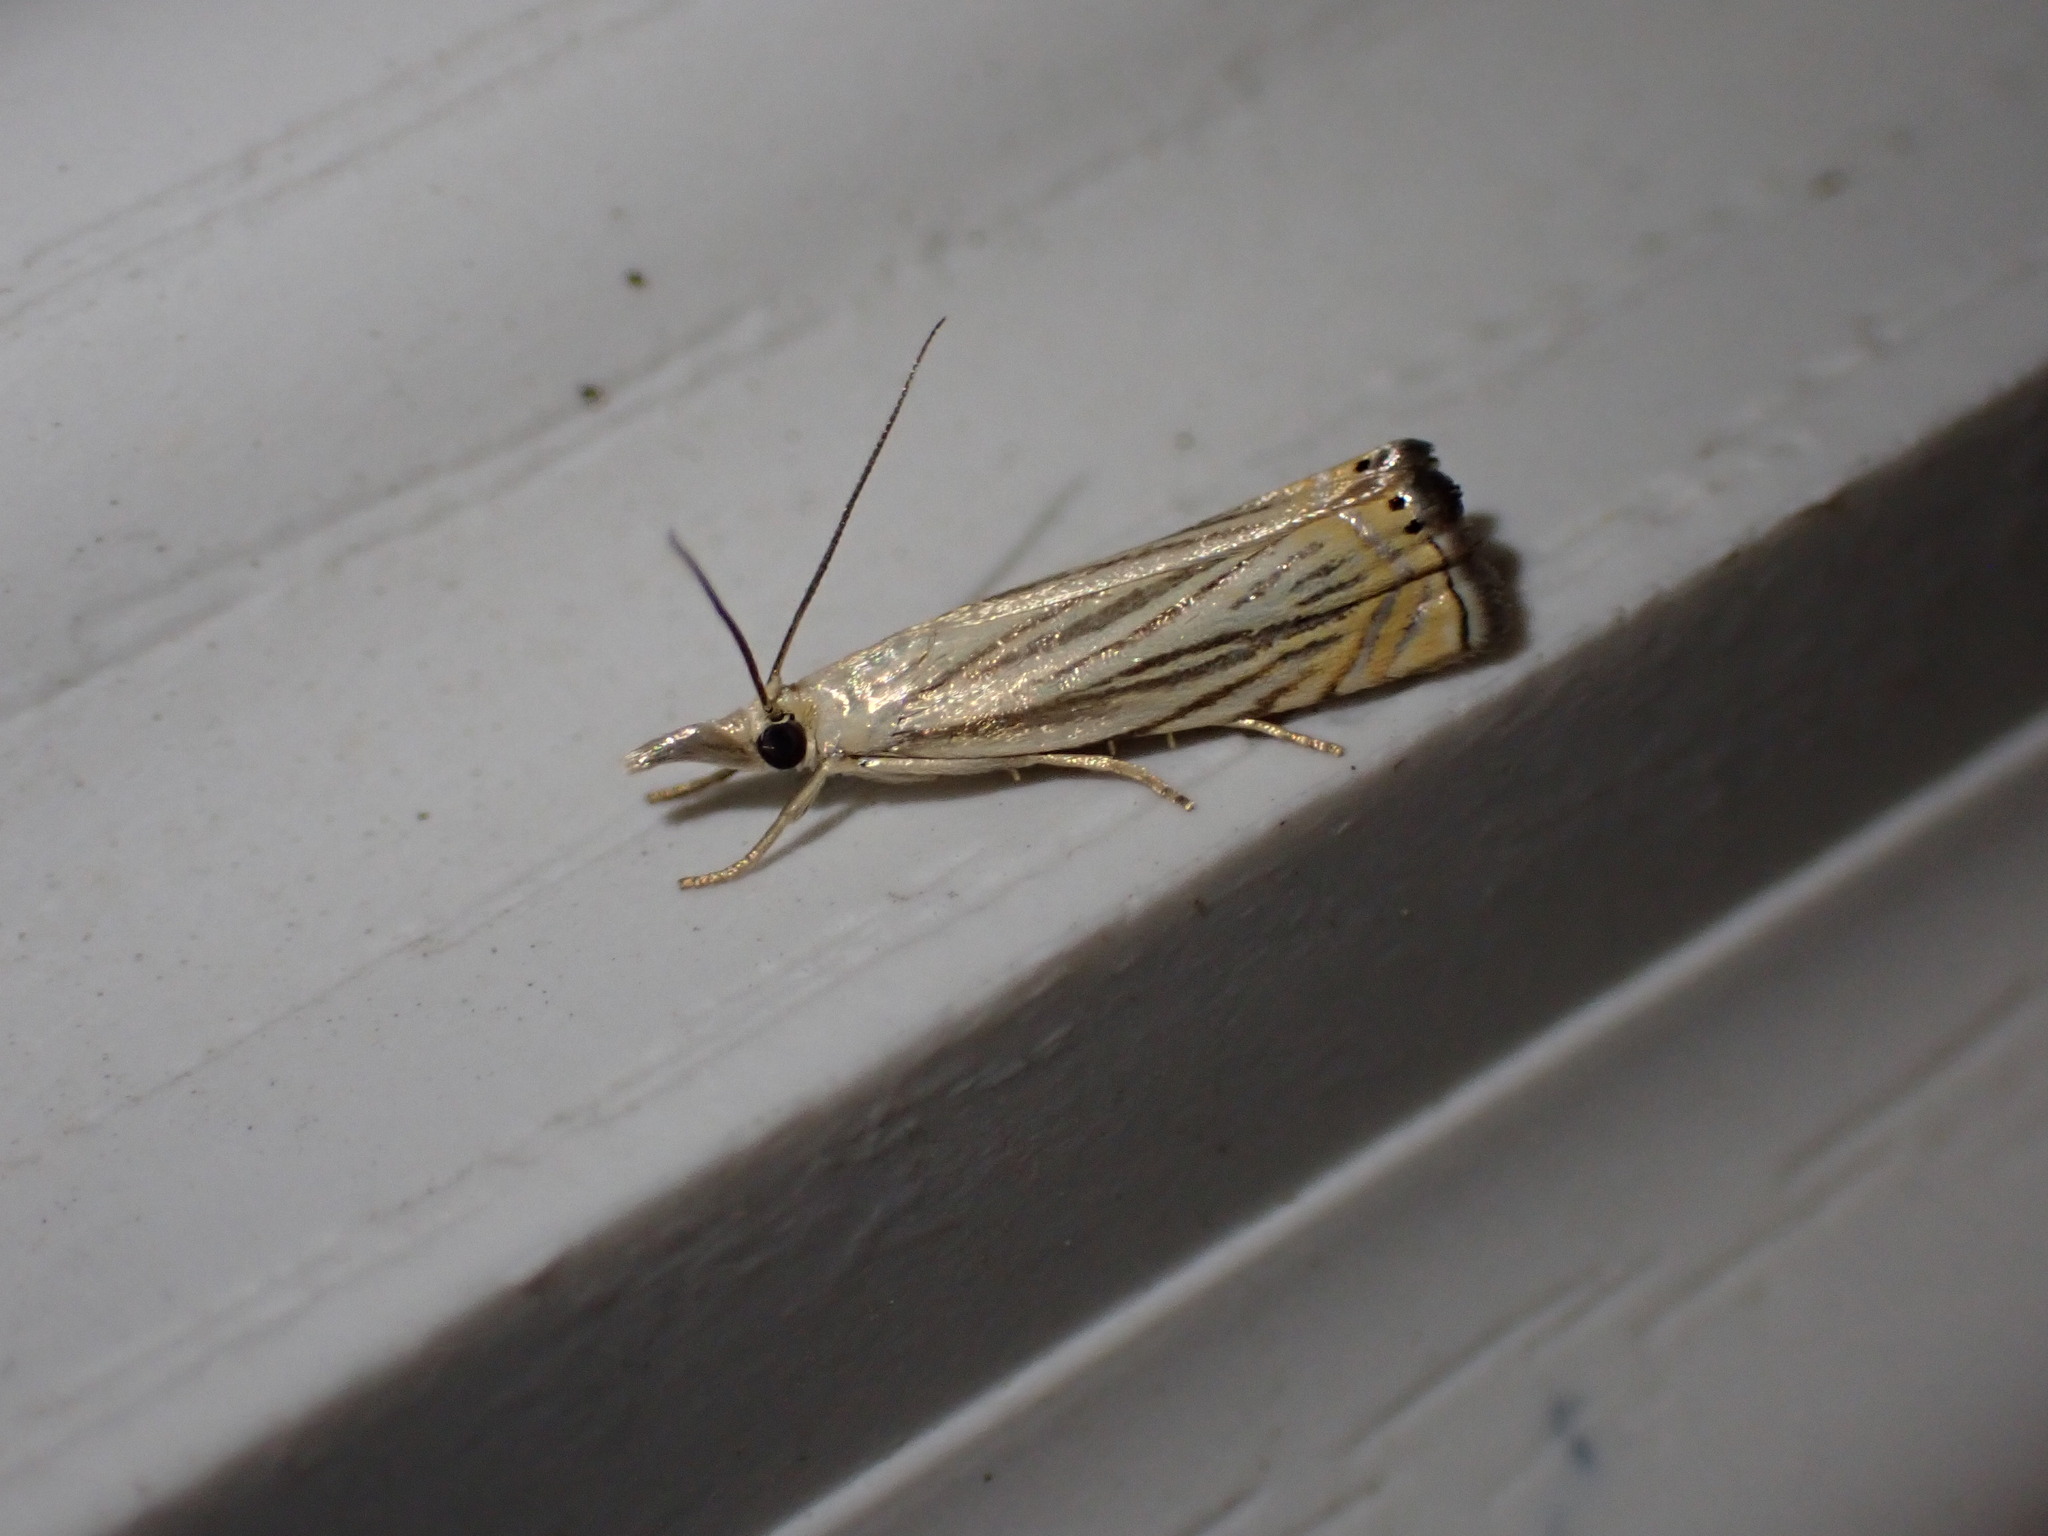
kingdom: Animalia
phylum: Arthropoda
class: Insecta
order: Lepidoptera
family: Crambidae
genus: Chrysoteuchia
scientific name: Chrysoteuchia topiarius
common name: Topiary grass-veneer
